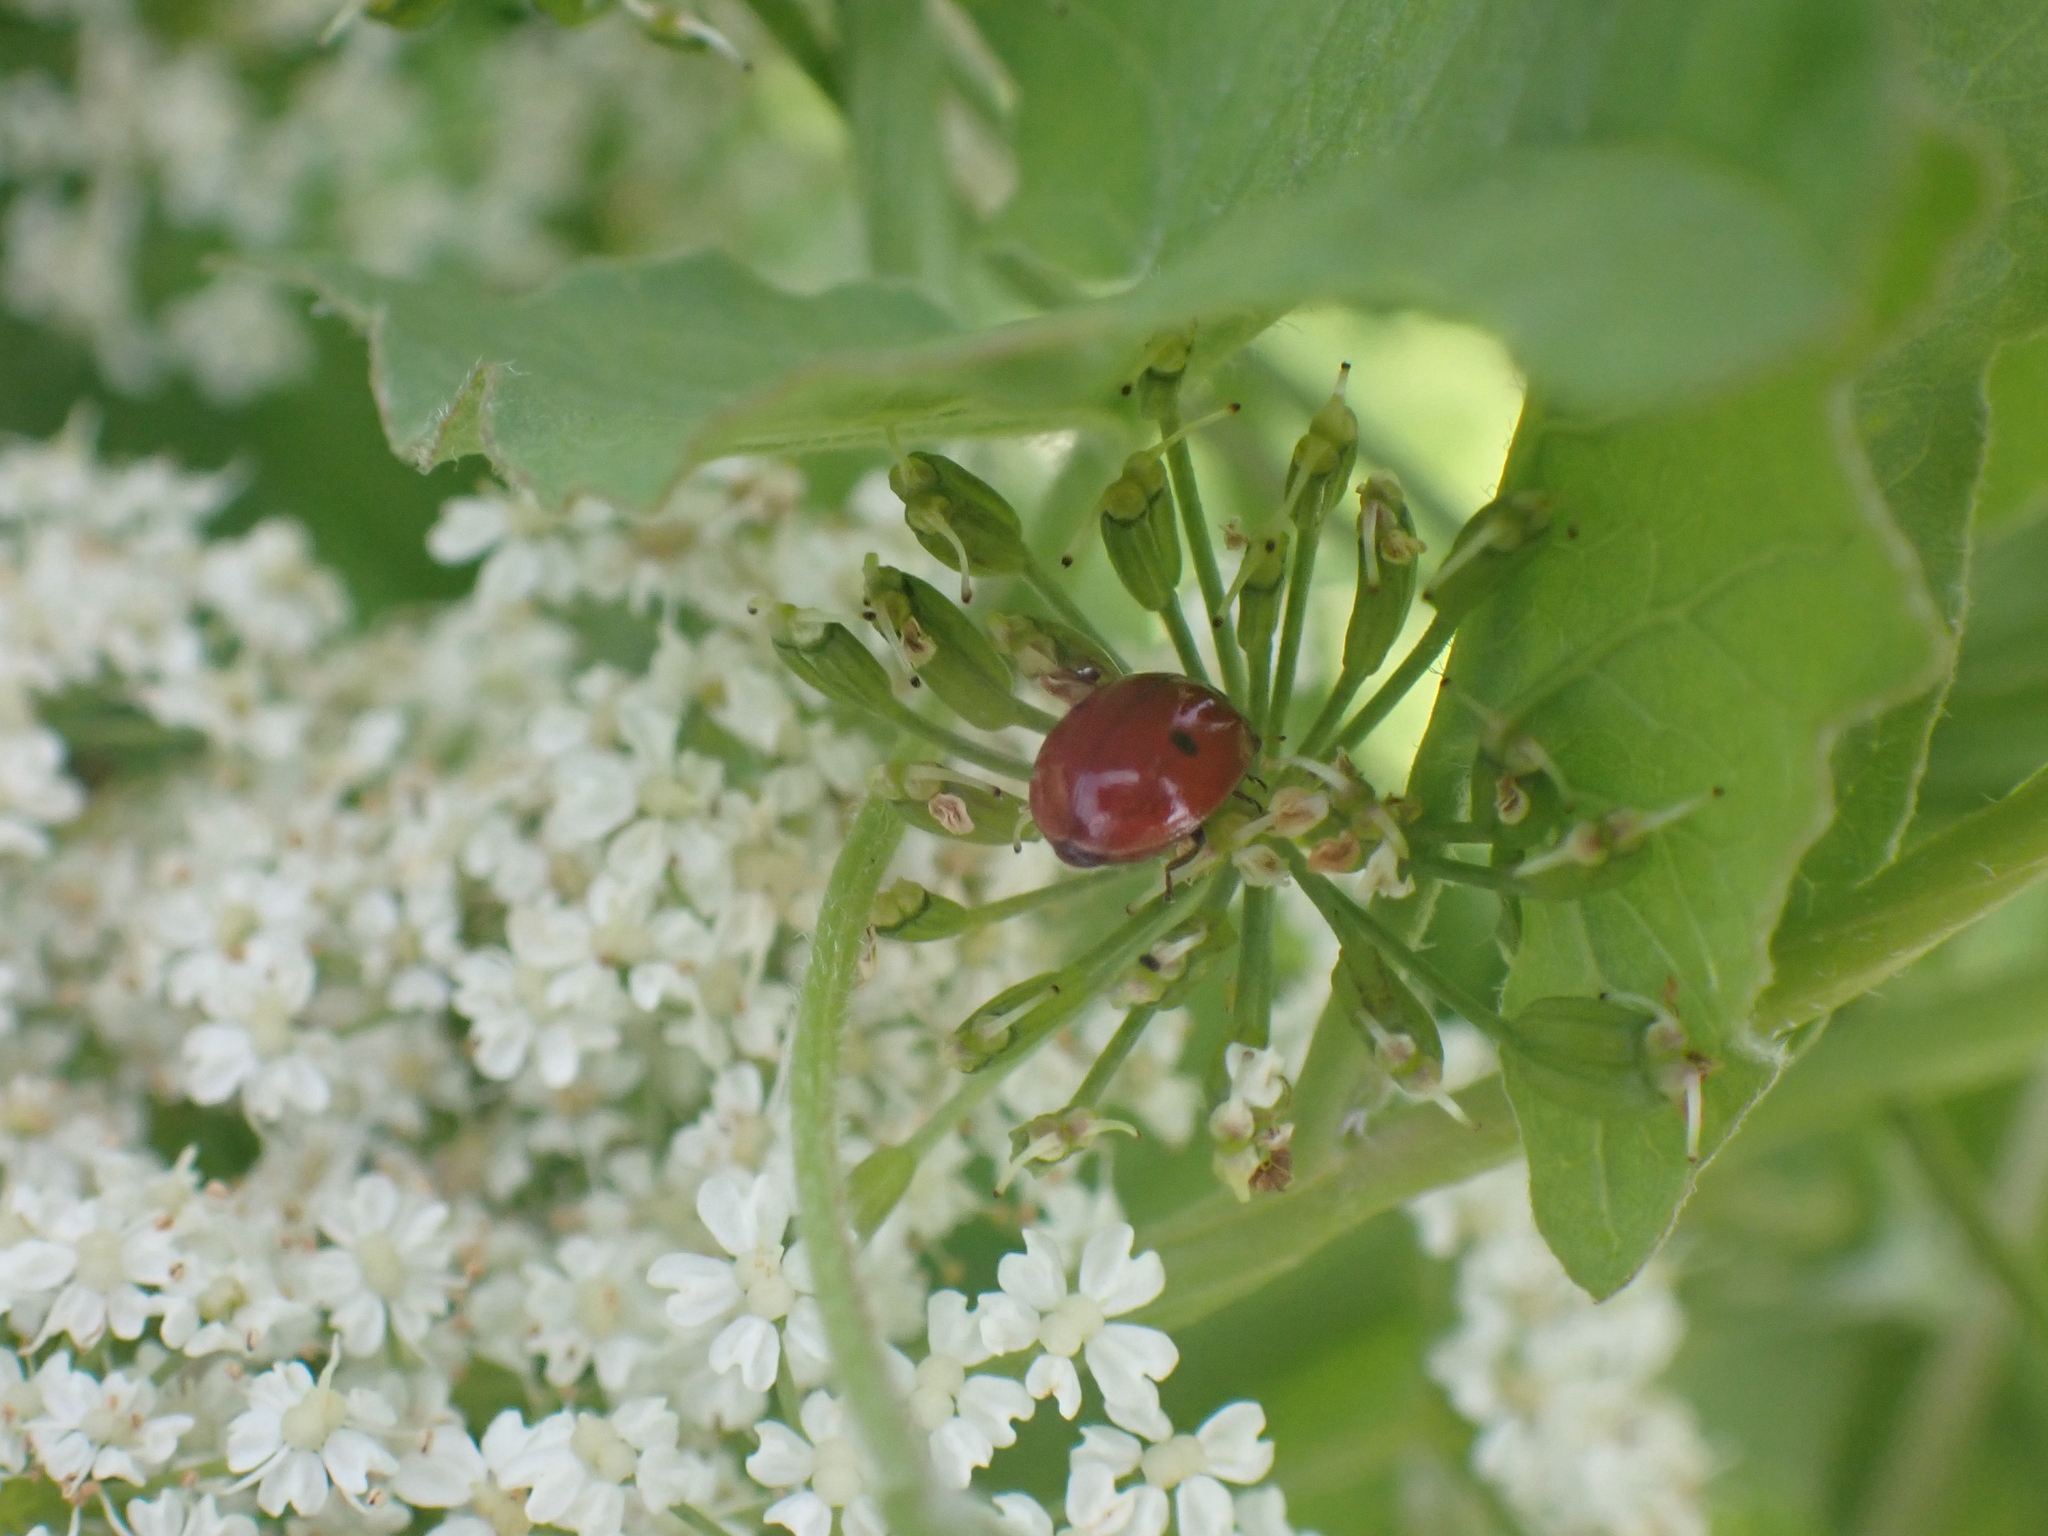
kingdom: Animalia
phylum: Arthropoda
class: Insecta
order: Coleoptera
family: Coccinellidae
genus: Adalia
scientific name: Adalia bipunctata
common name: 2-spot ladybird
